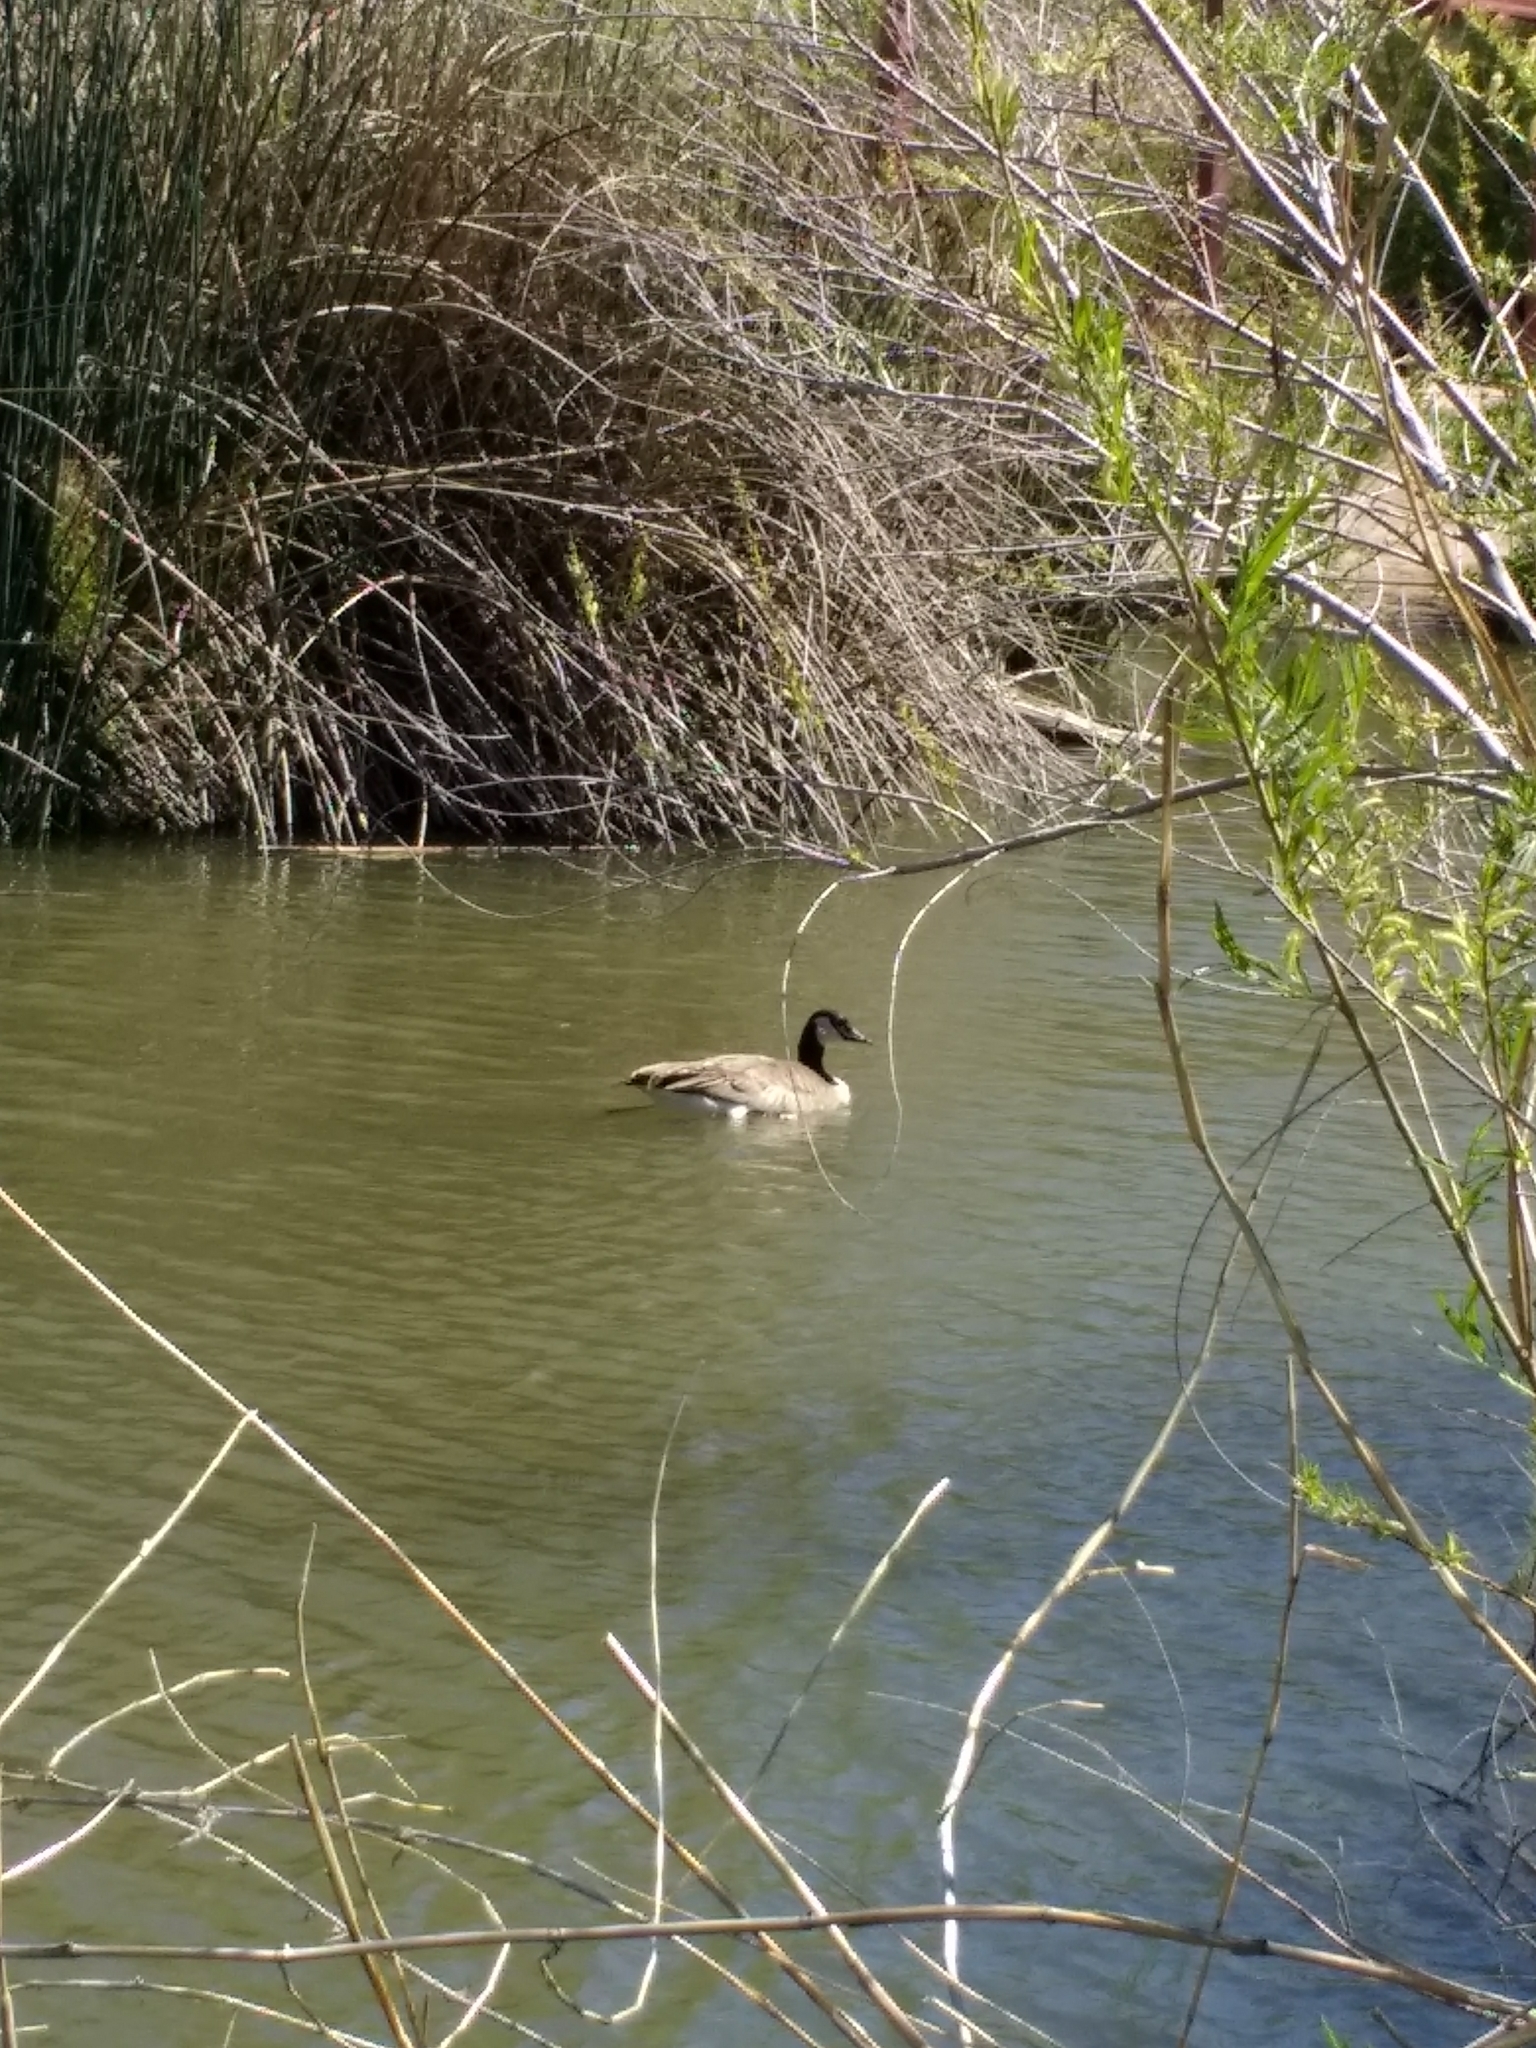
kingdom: Animalia
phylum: Chordata
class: Aves
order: Anseriformes
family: Anatidae
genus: Branta
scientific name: Branta canadensis
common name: Canada goose
